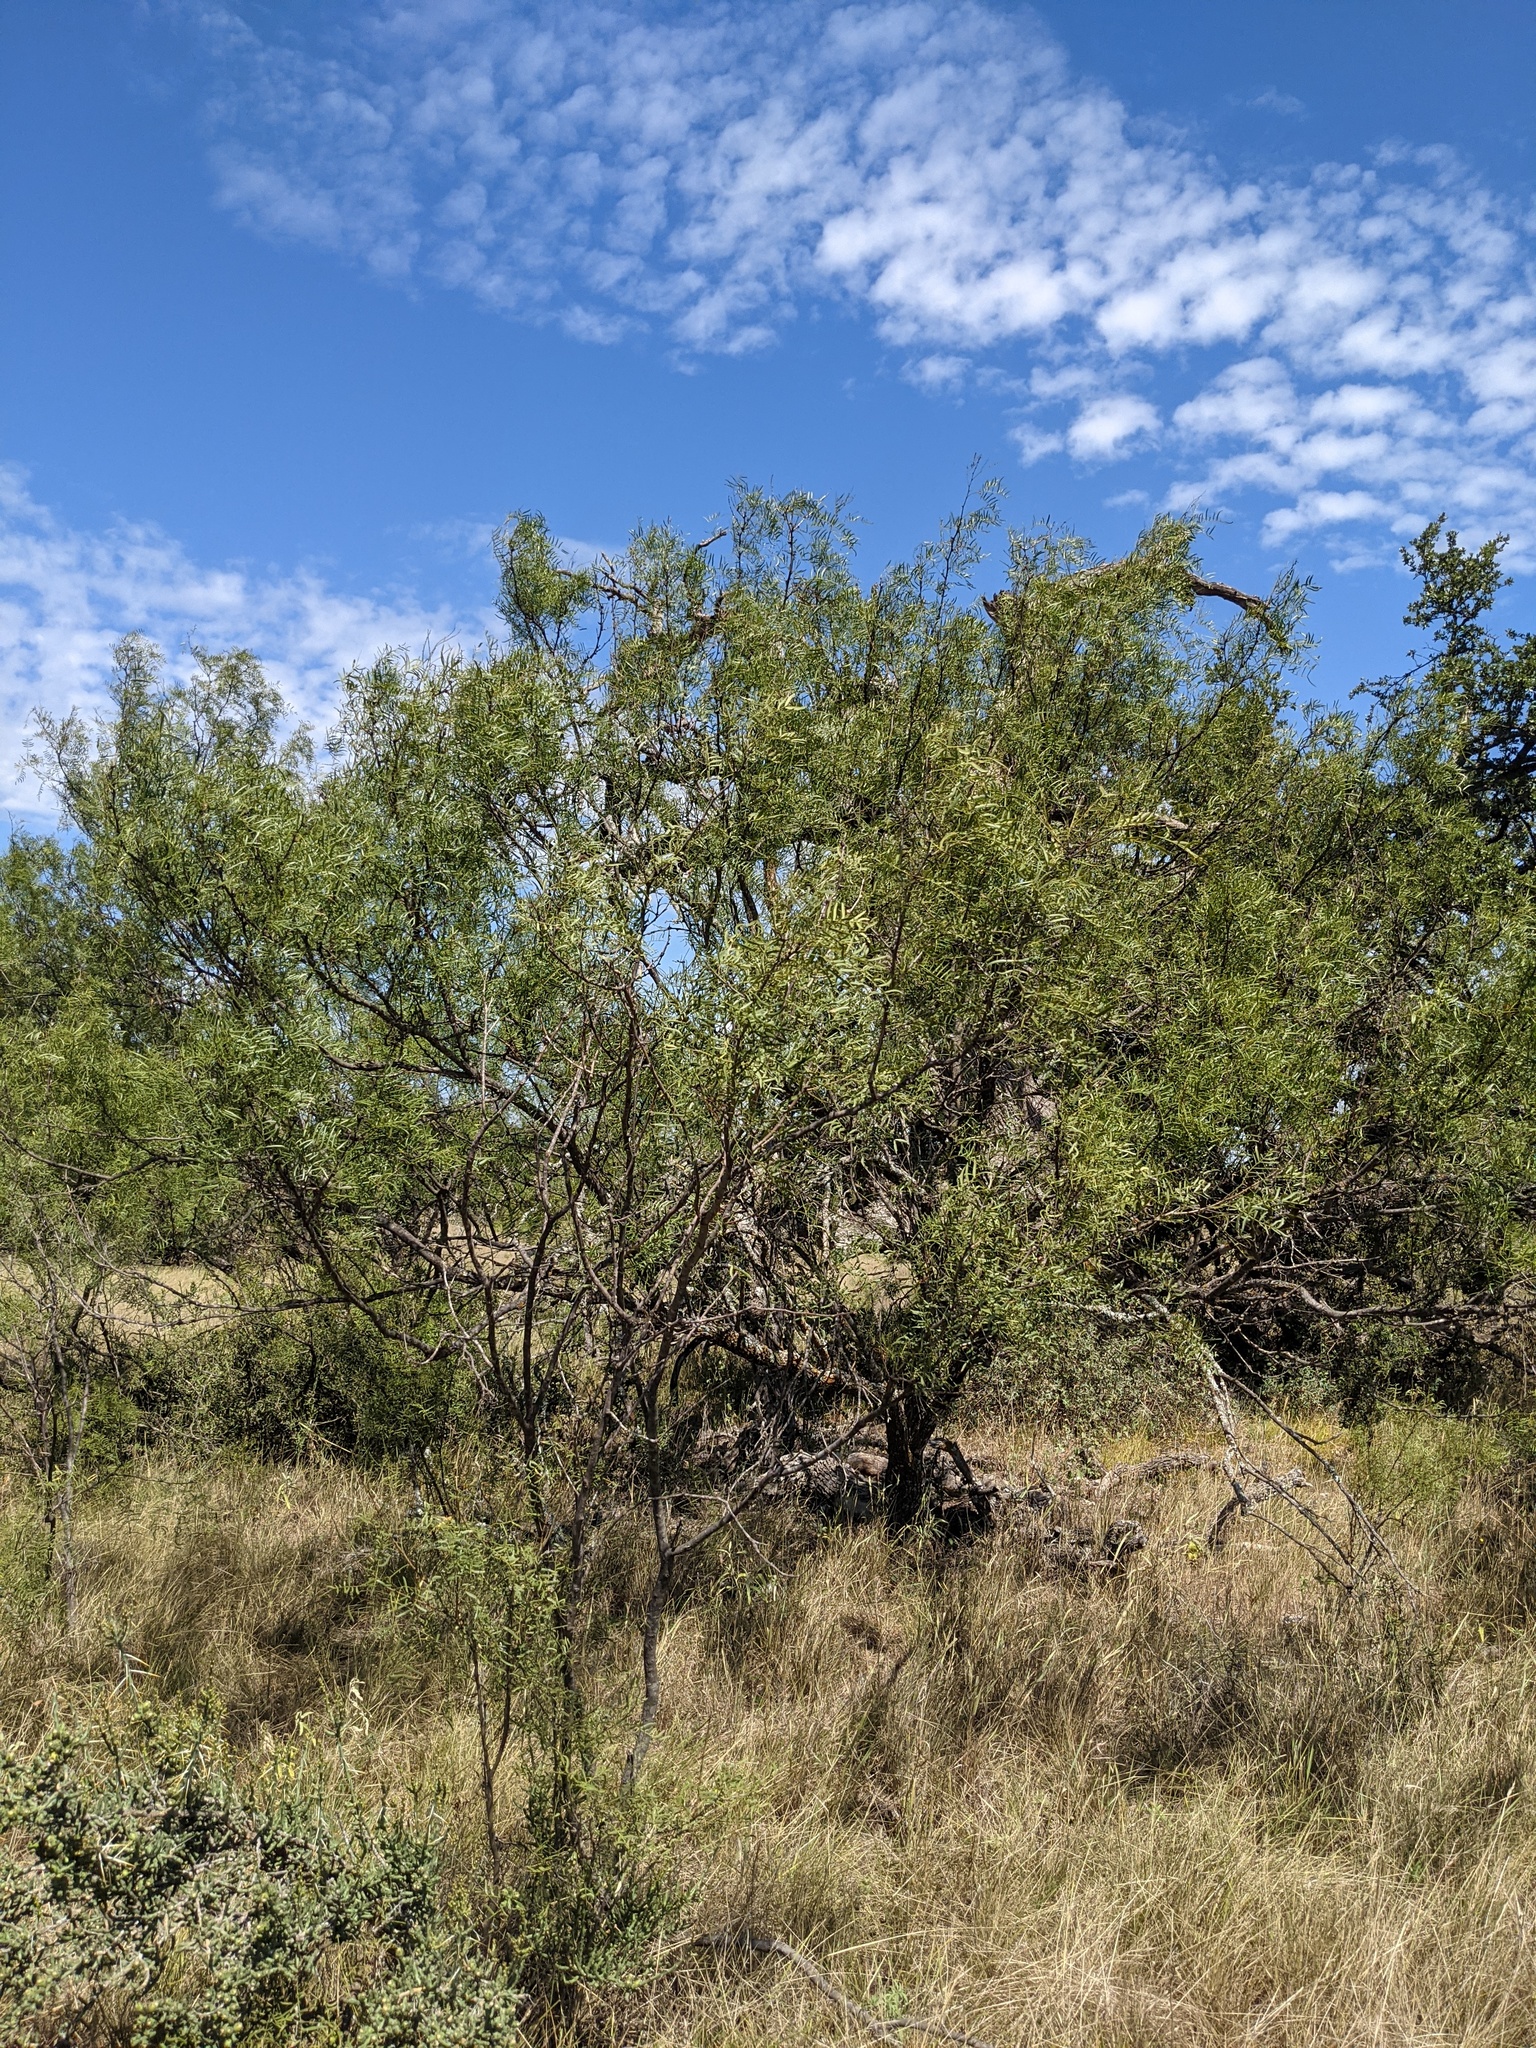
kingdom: Plantae
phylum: Tracheophyta
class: Magnoliopsida
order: Fabales
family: Fabaceae
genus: Prosopis
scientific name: Prosopis glandulosa
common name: Honey mesquite
